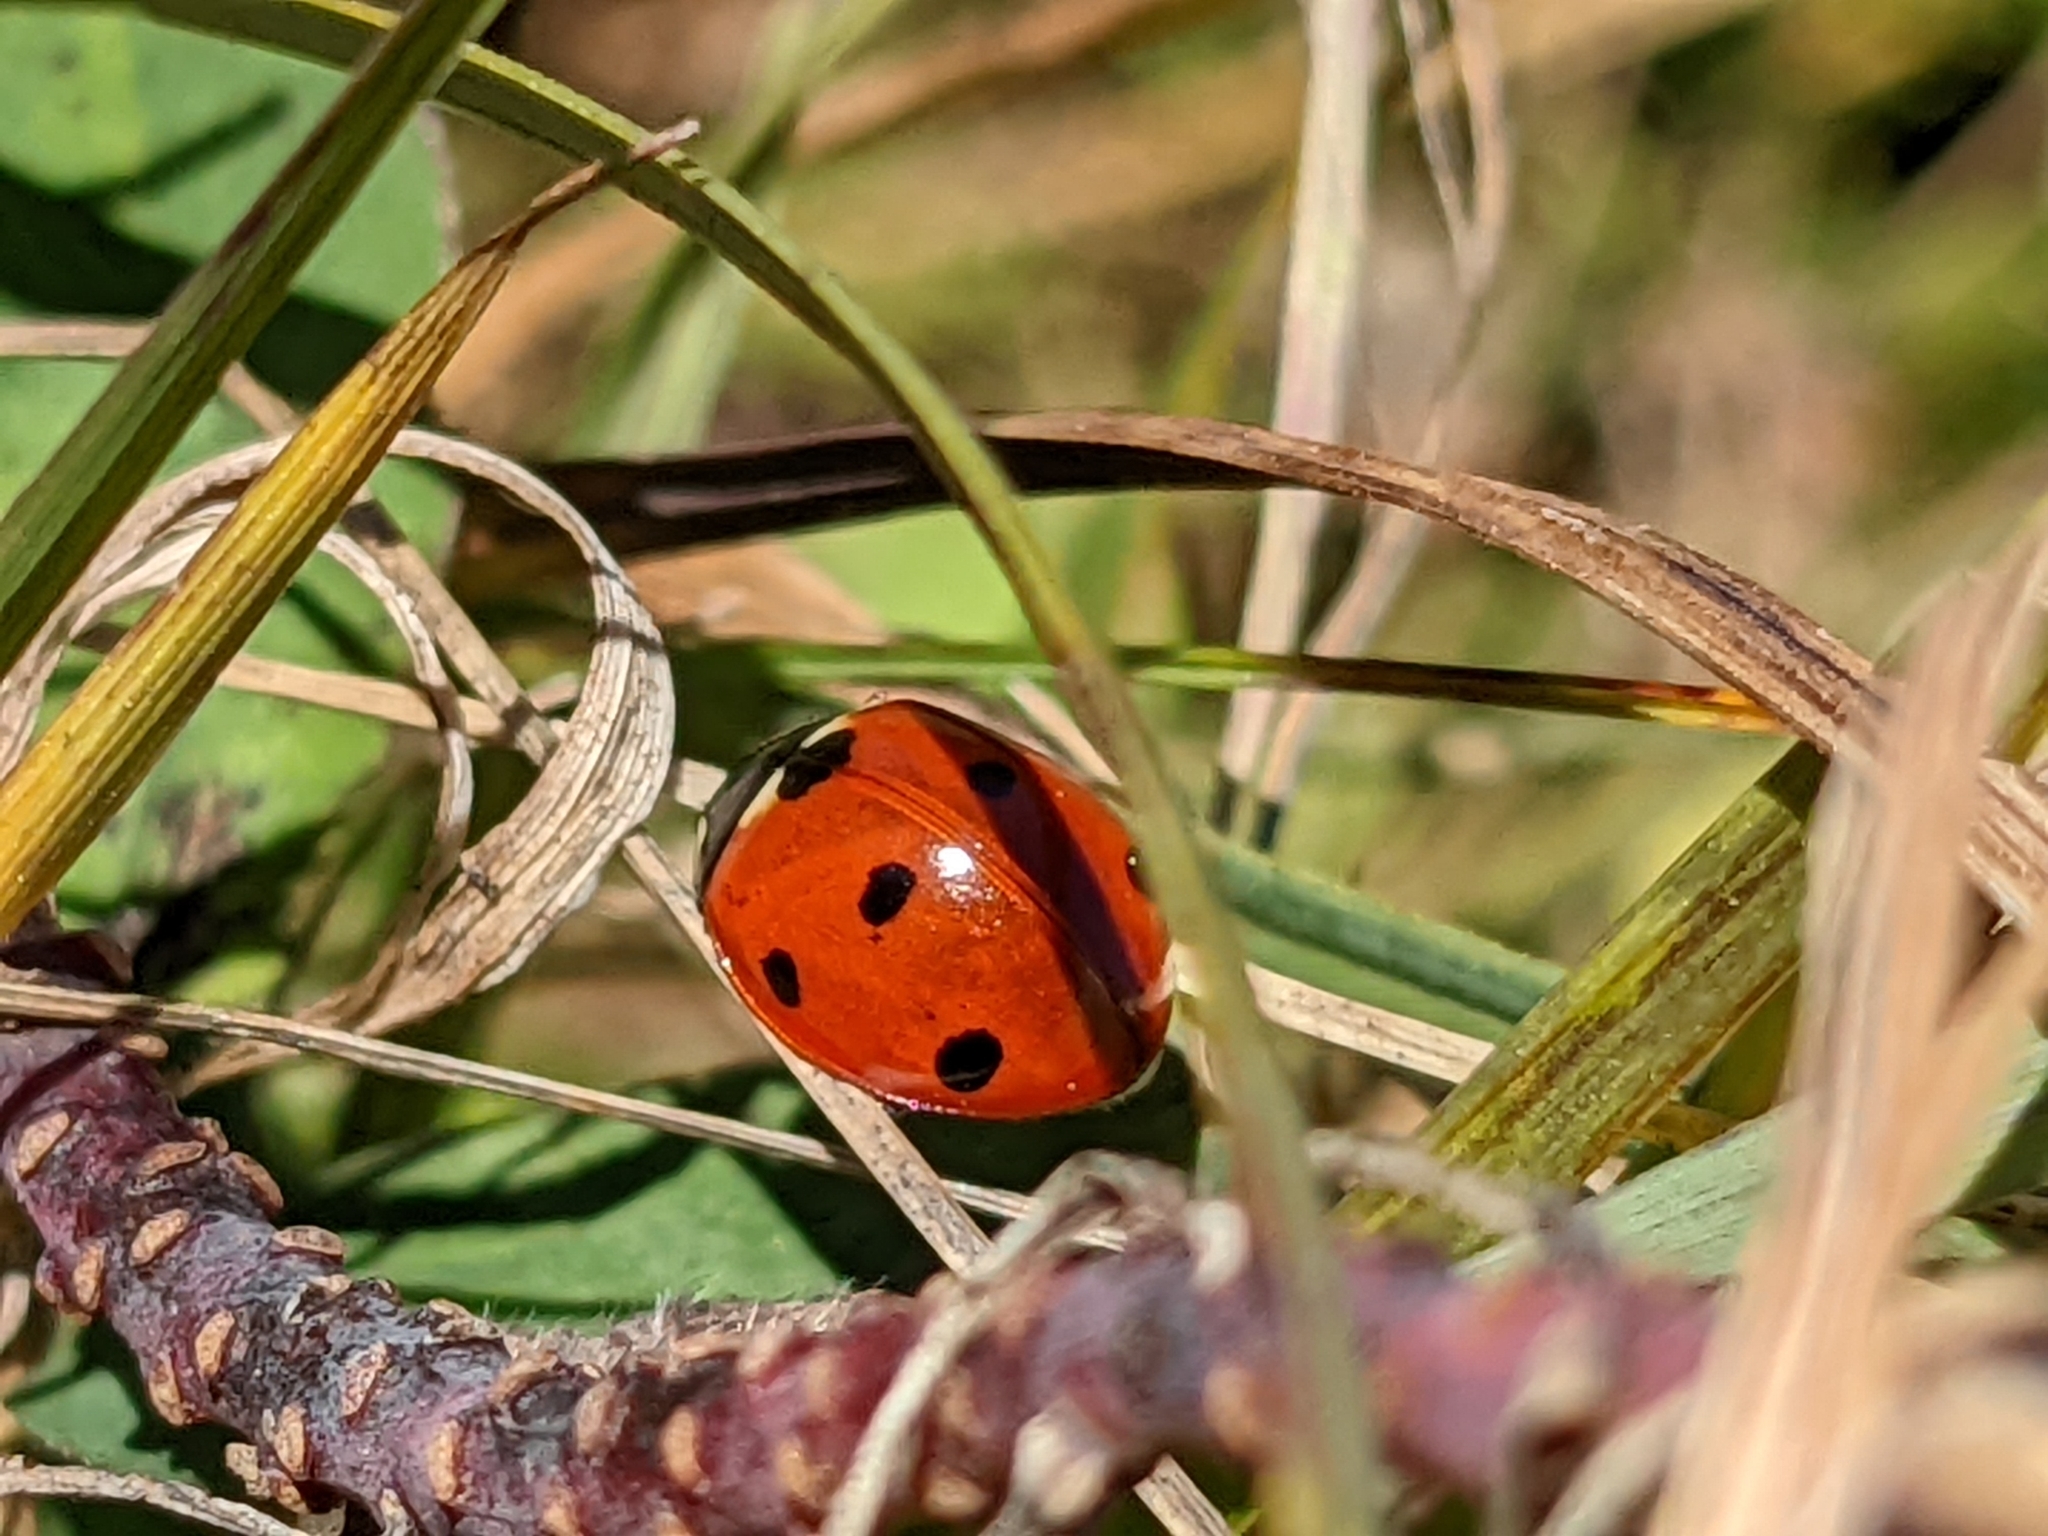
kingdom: Animalia
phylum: Arthropoda
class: Insecta
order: Coleoptera
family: Coccinellidae
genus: Coccinella
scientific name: Coccinella septempunctata
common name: Sevenspotted lady beetle
